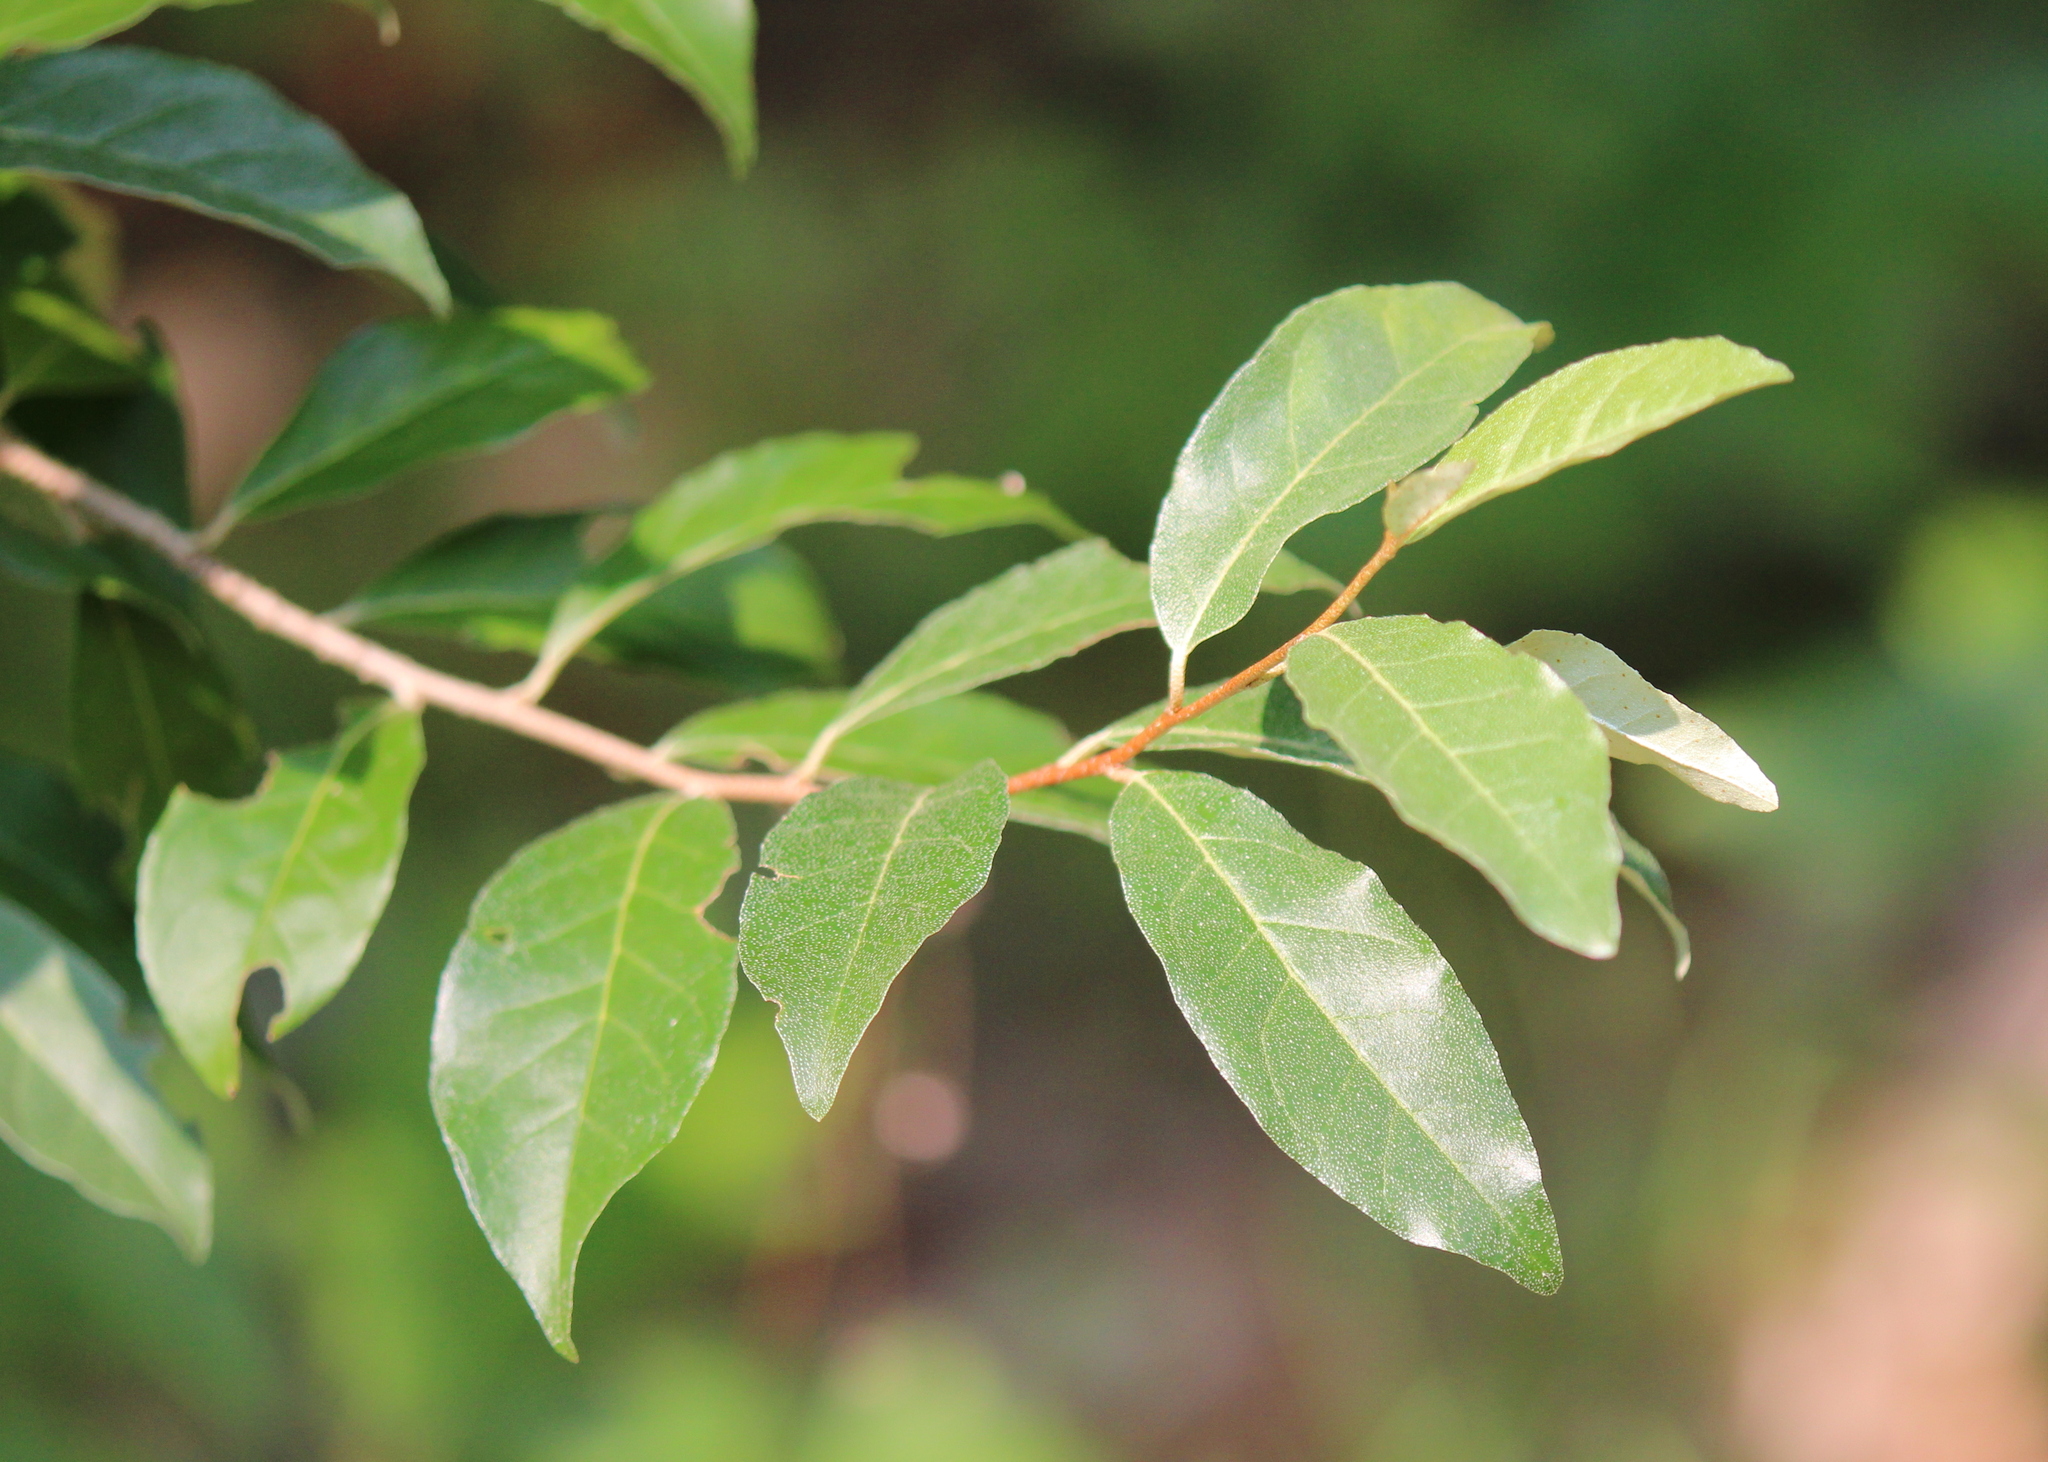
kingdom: Plantae
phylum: Tracheophyta
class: Magnoliopsida
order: Rosales
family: Elaeagnaceae
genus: Elaeagnus
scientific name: Elaeagnus umbellata
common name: Autumn olive
